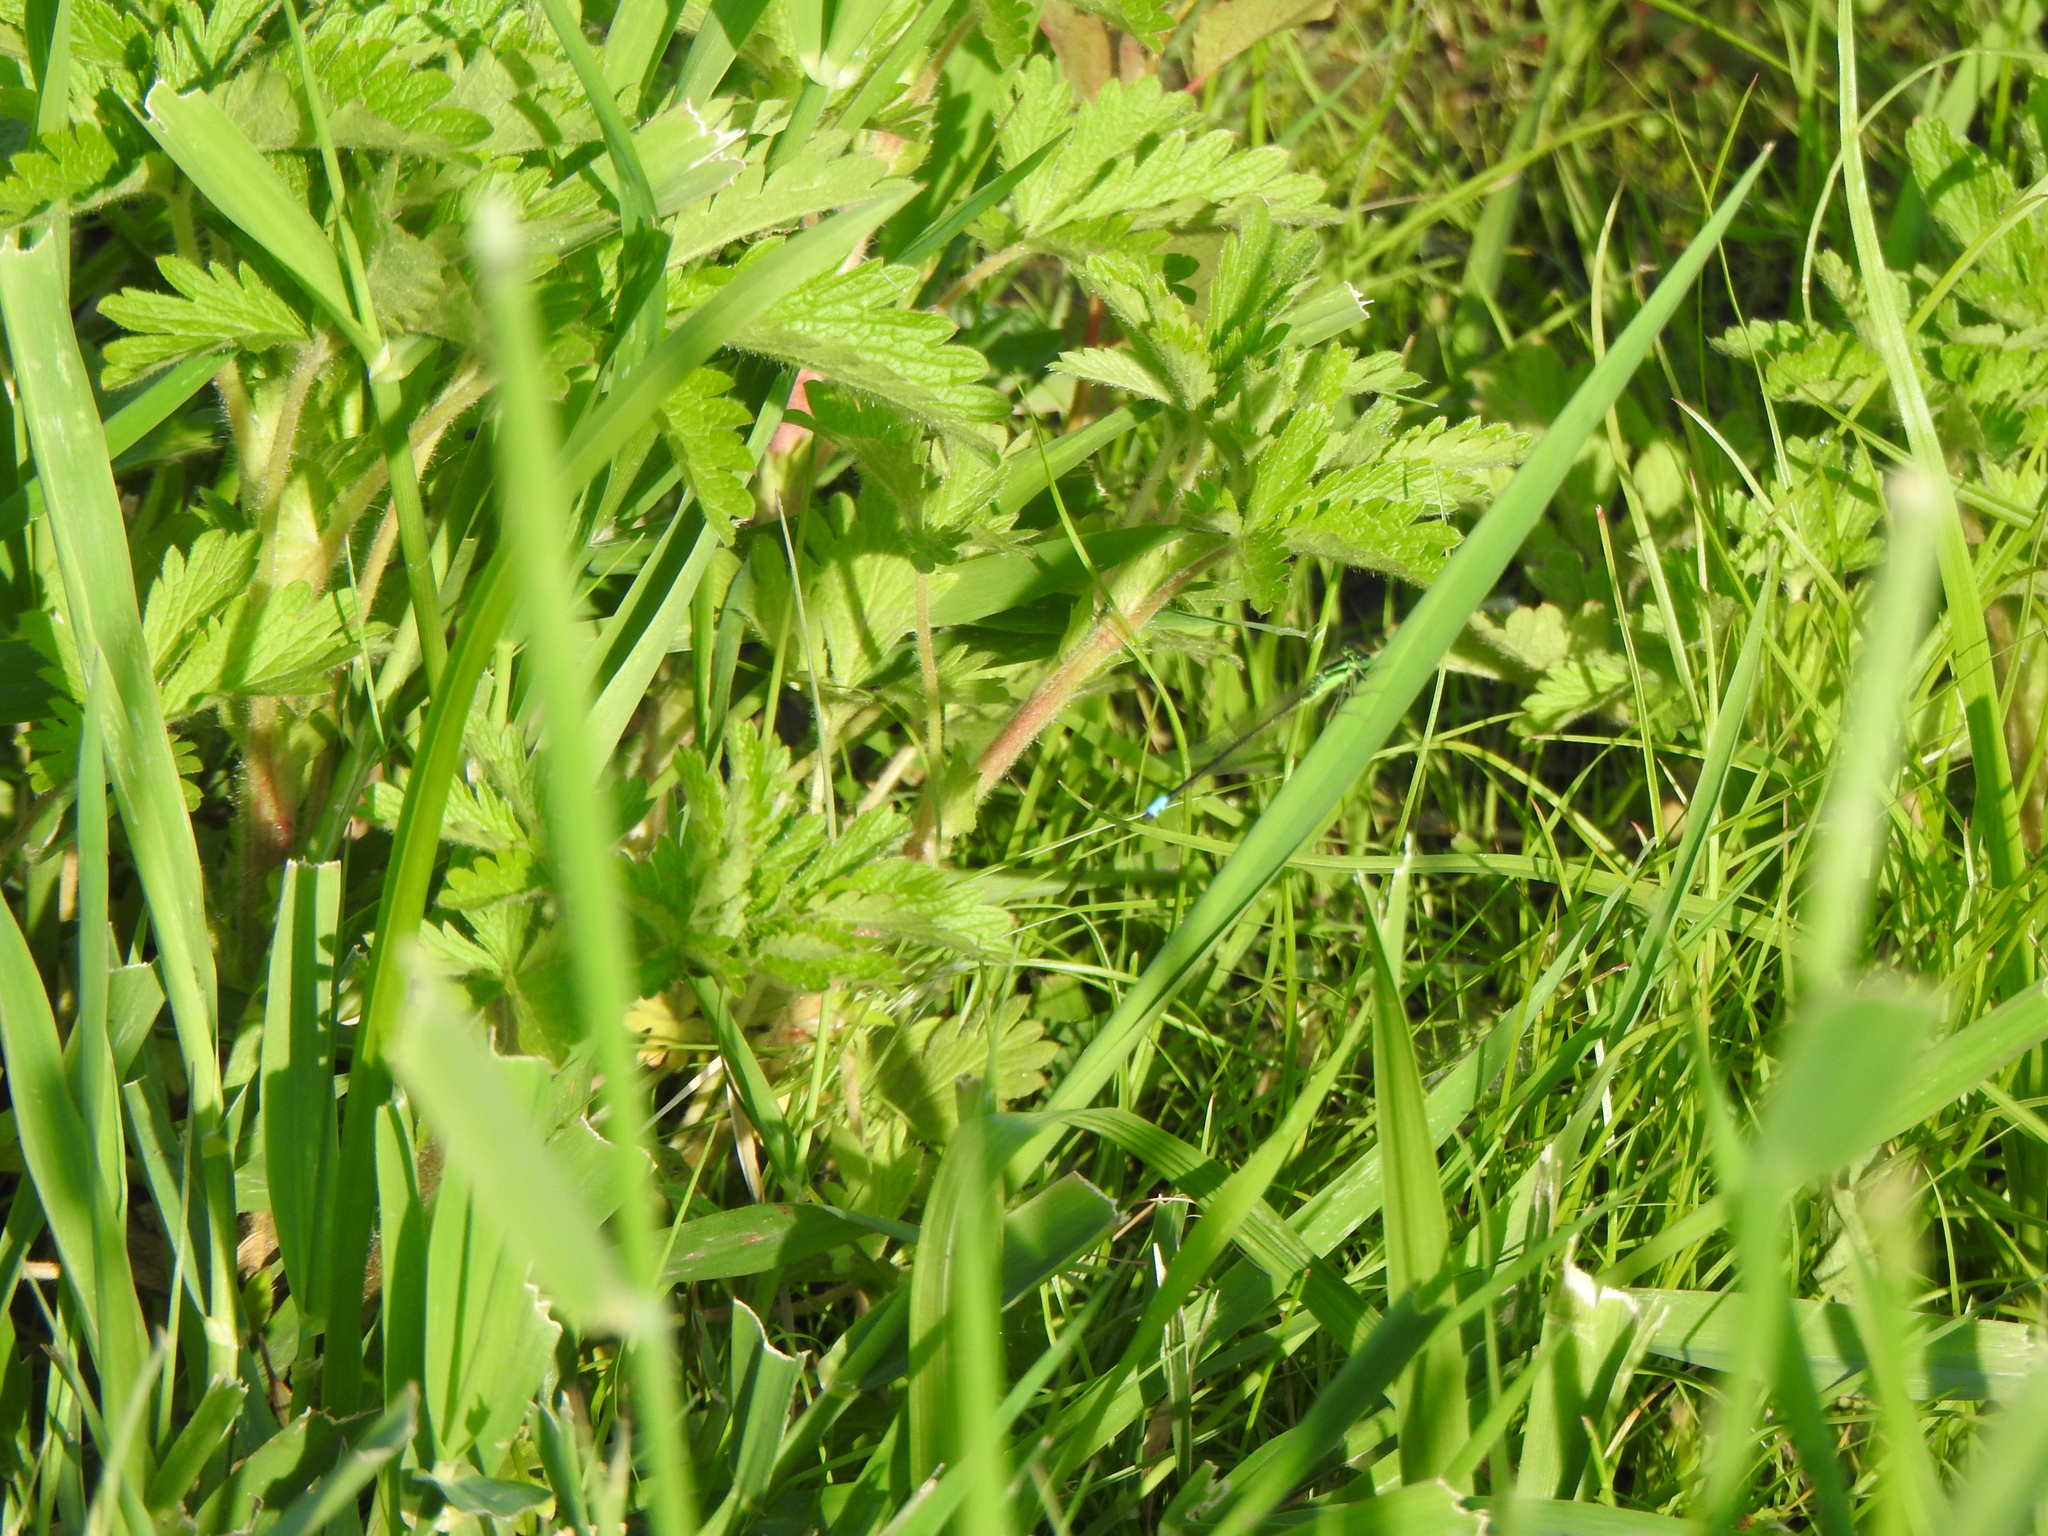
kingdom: Animalia
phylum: Arthropoda
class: Insecta
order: Odonata
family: Coenagrionidae
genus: Ischnura
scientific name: Ischnura verticalis
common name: Eastern forktail
